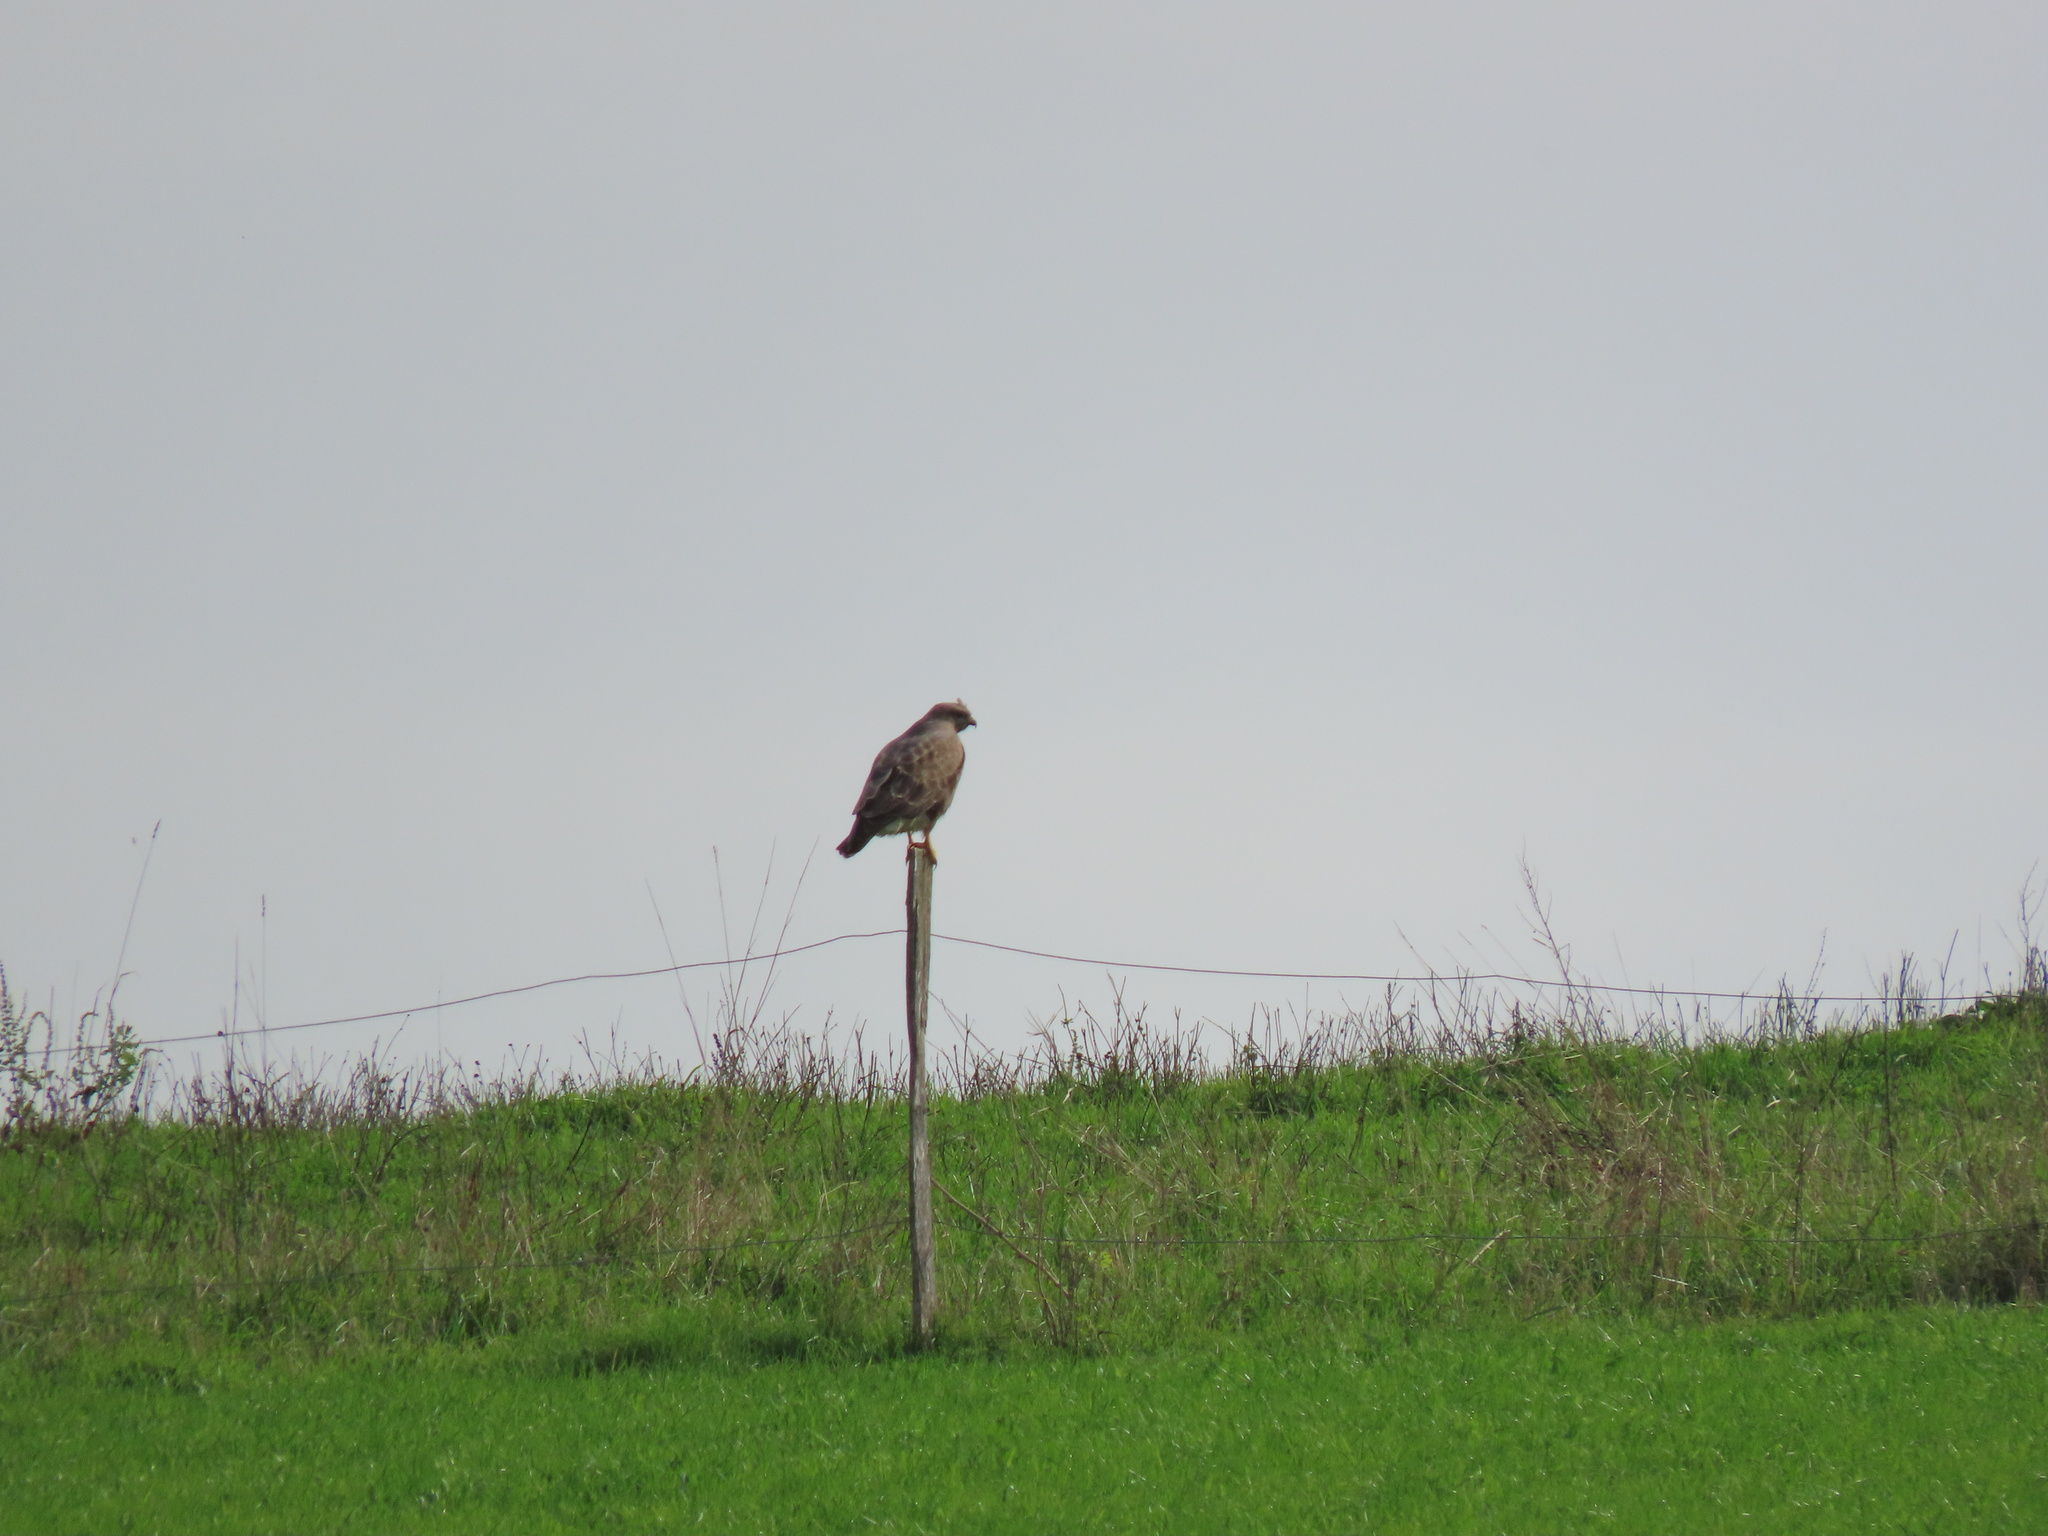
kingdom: Animalia
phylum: Chordata
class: Aves
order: Accipitriformes
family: Accipitridae
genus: Buteo
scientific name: Buteo buteo
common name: Common buzzard
